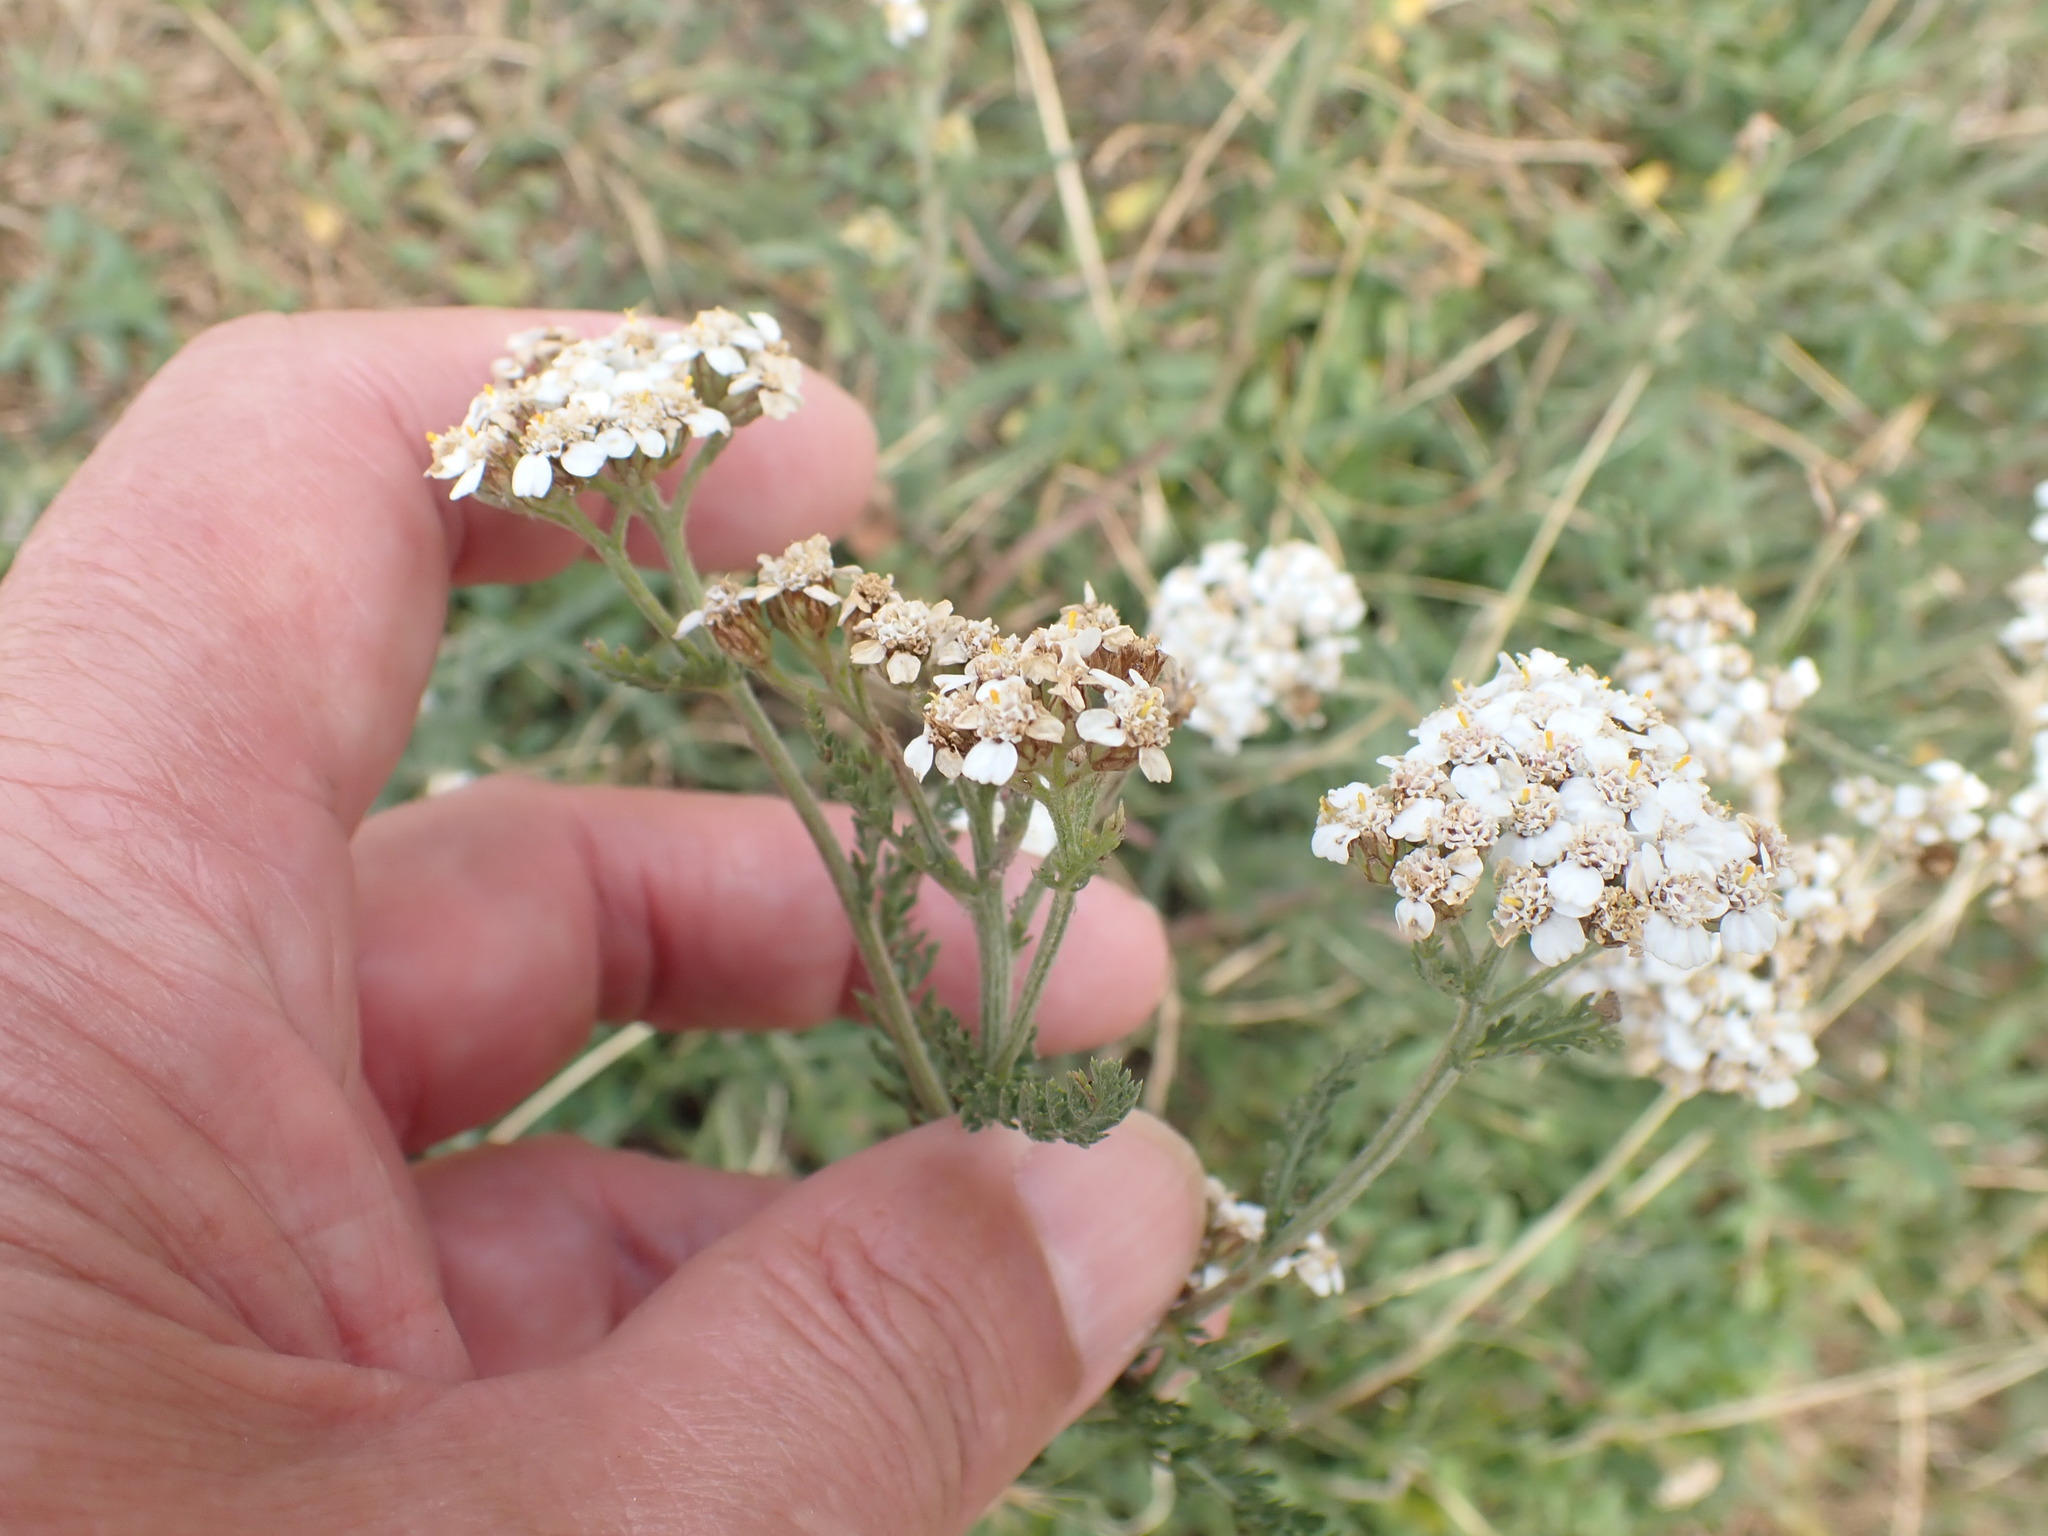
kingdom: Plantae
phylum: Tracheophyta
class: Magnoliopsida
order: Asterales
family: Asteraceae
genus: Achillea
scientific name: Achillea millefolium
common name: Yarrow
